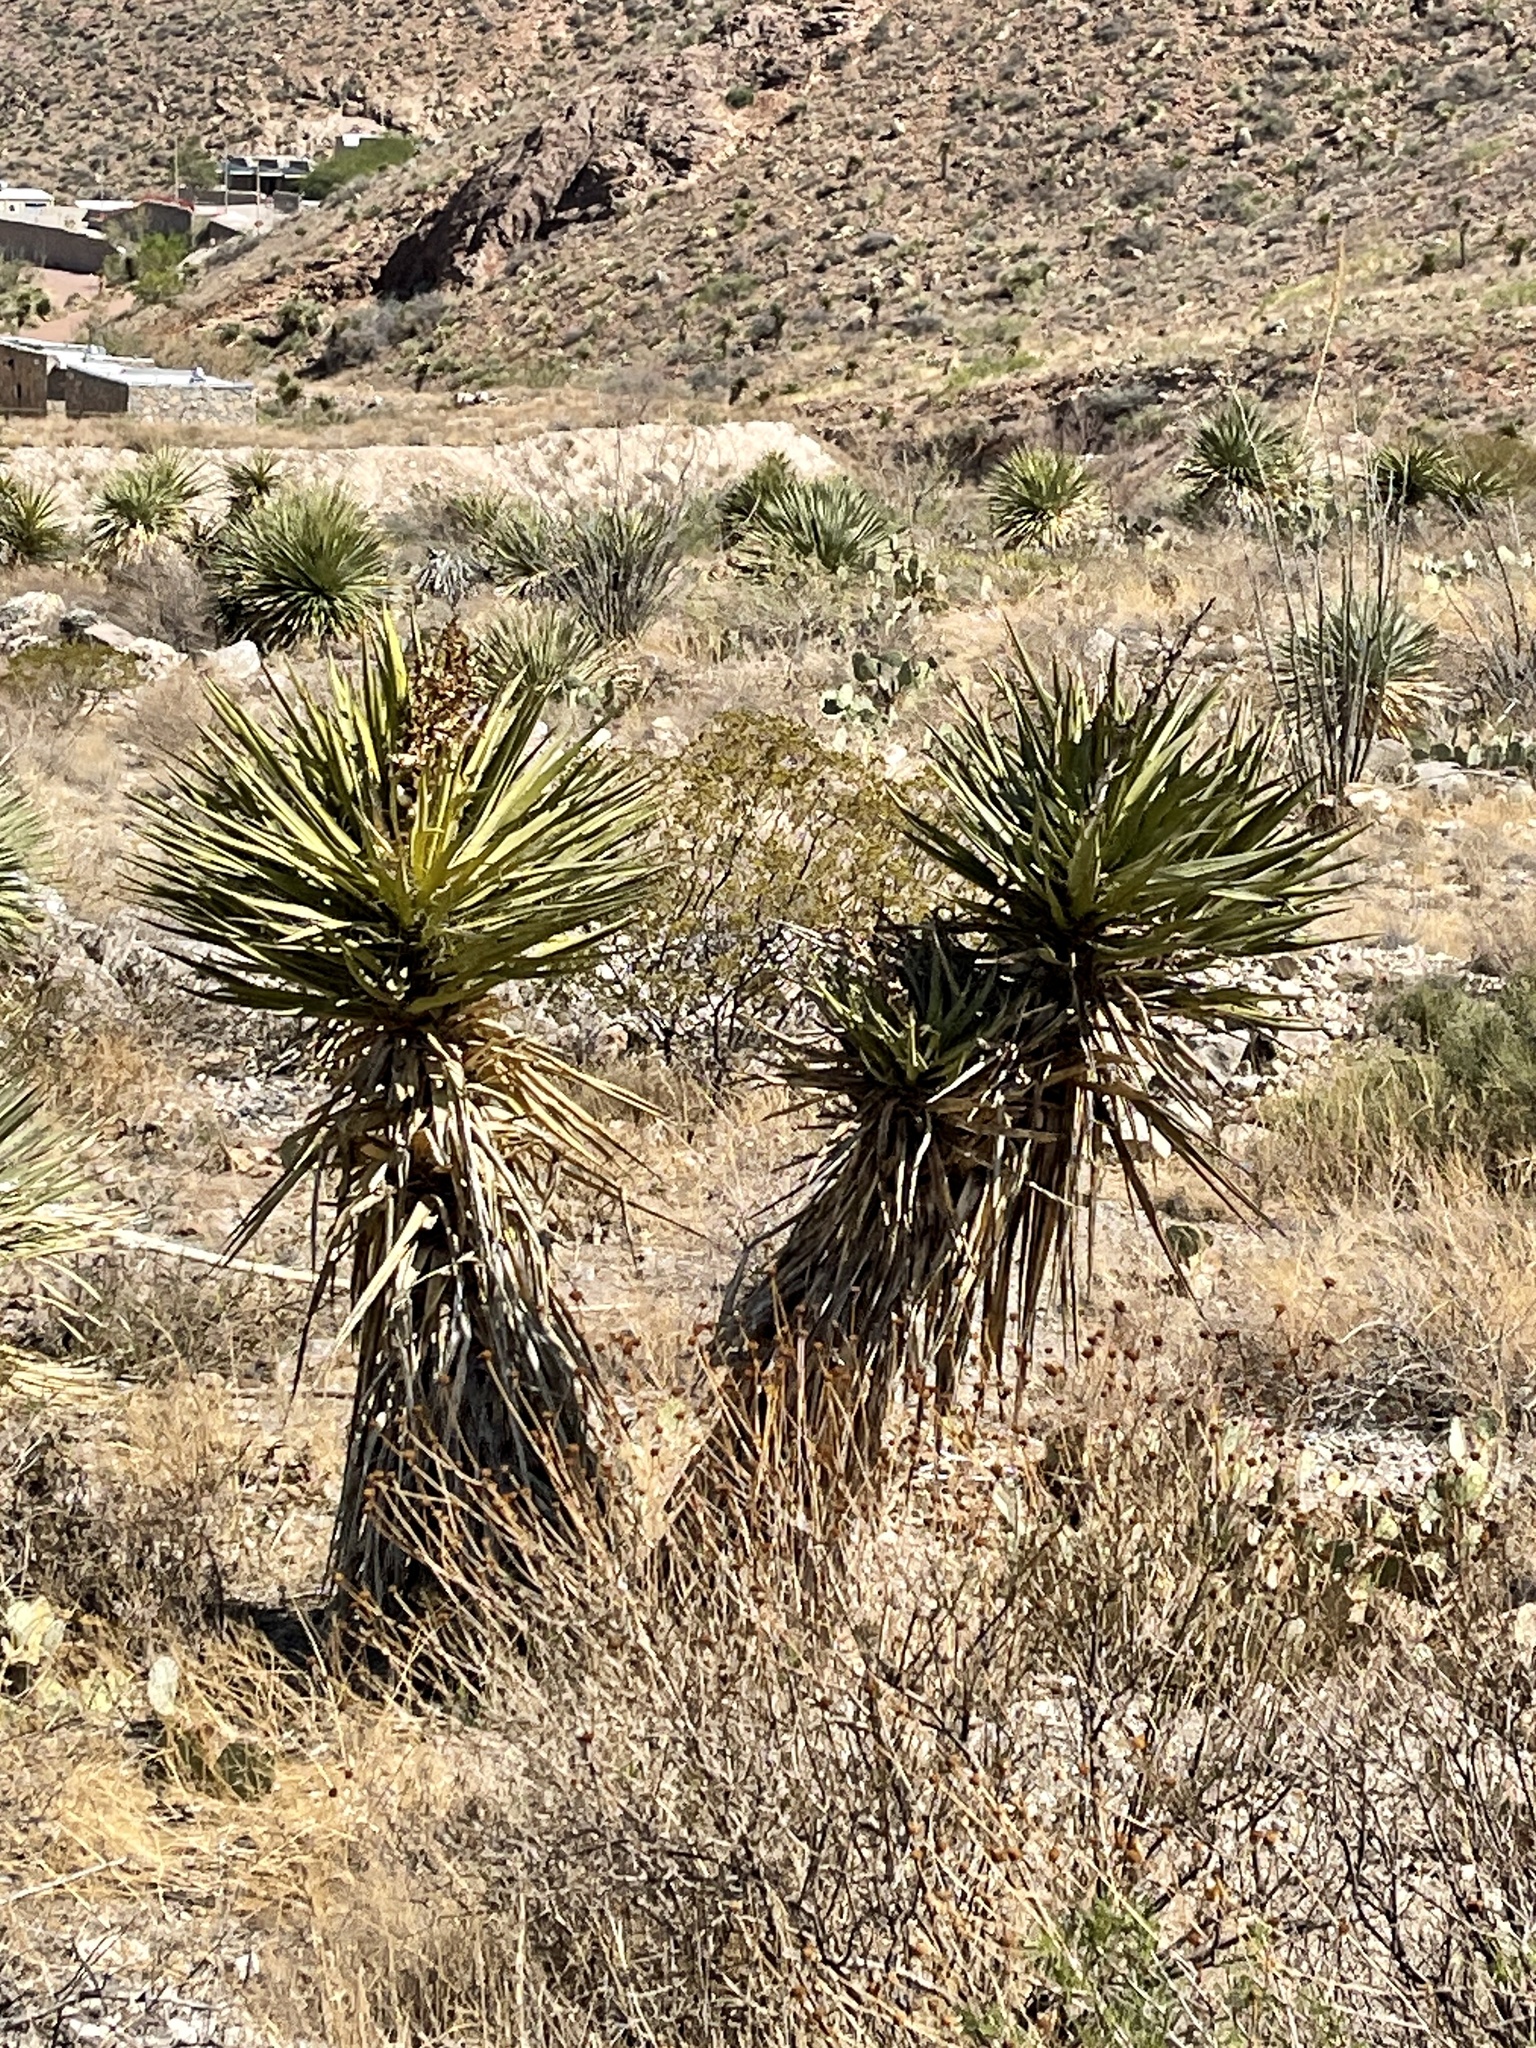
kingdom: Plantae
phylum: Tracheophyta
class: Liliopsida
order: Asparagales
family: Asparagaceae
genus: Yucca
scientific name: Yucca treculiana
